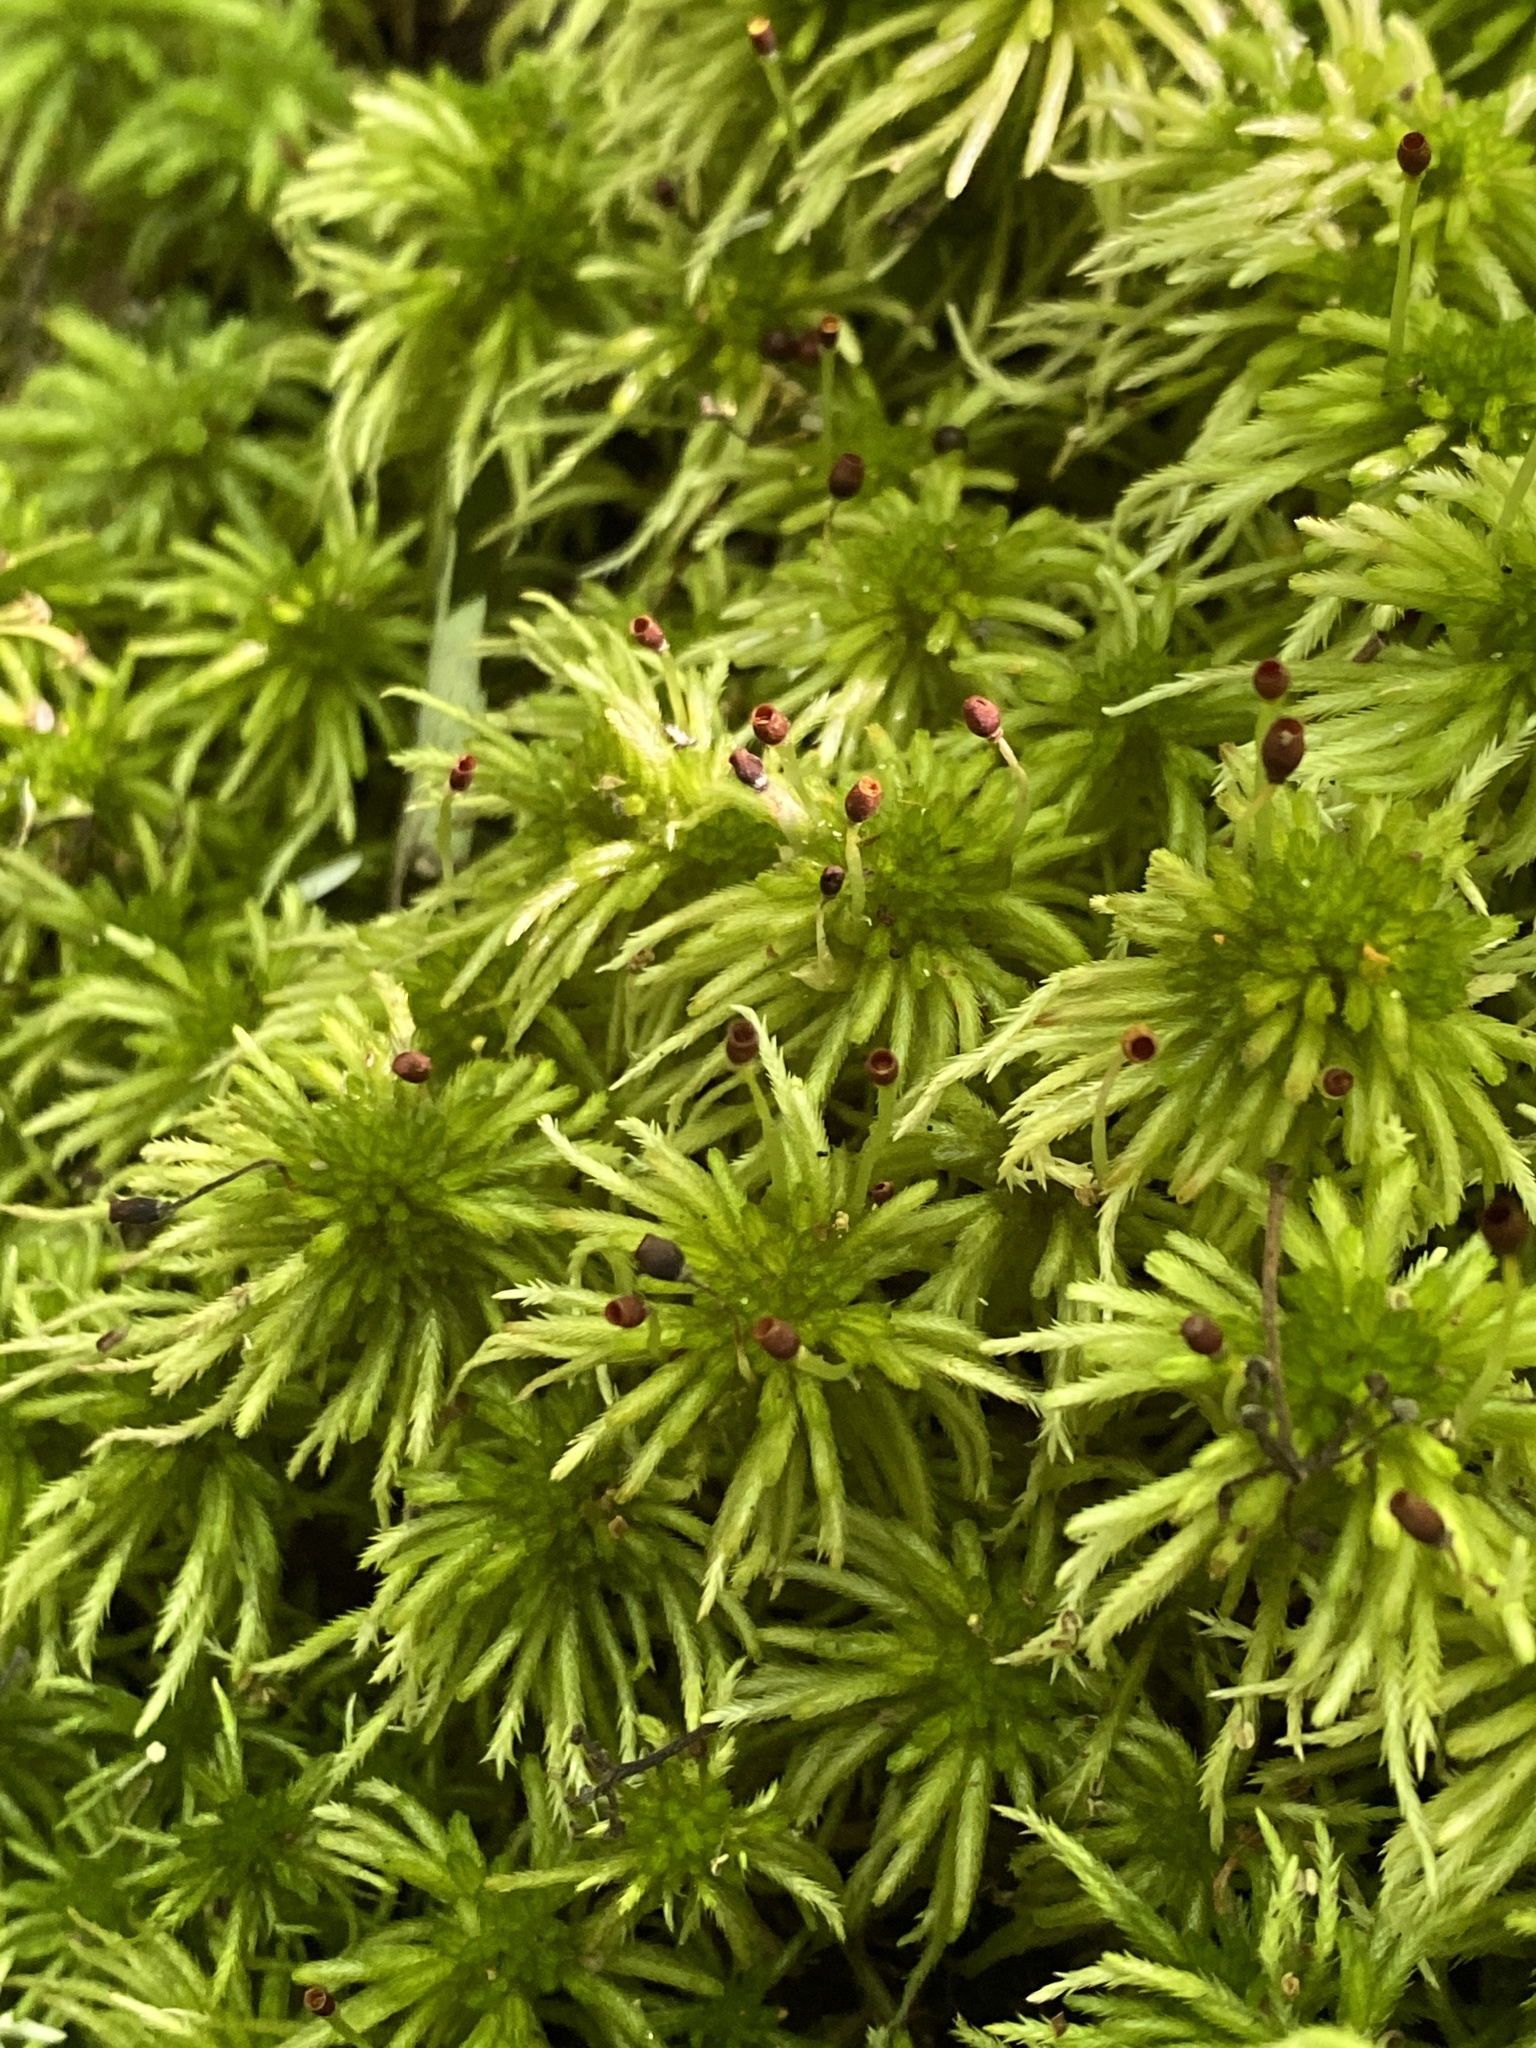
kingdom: Plantae
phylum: Bryophyta
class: Sphagnopsida
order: Sphagnales
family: Sphagnaceae
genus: Sphagnum
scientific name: Sphagnum recurvum
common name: Recurved peatmoss
